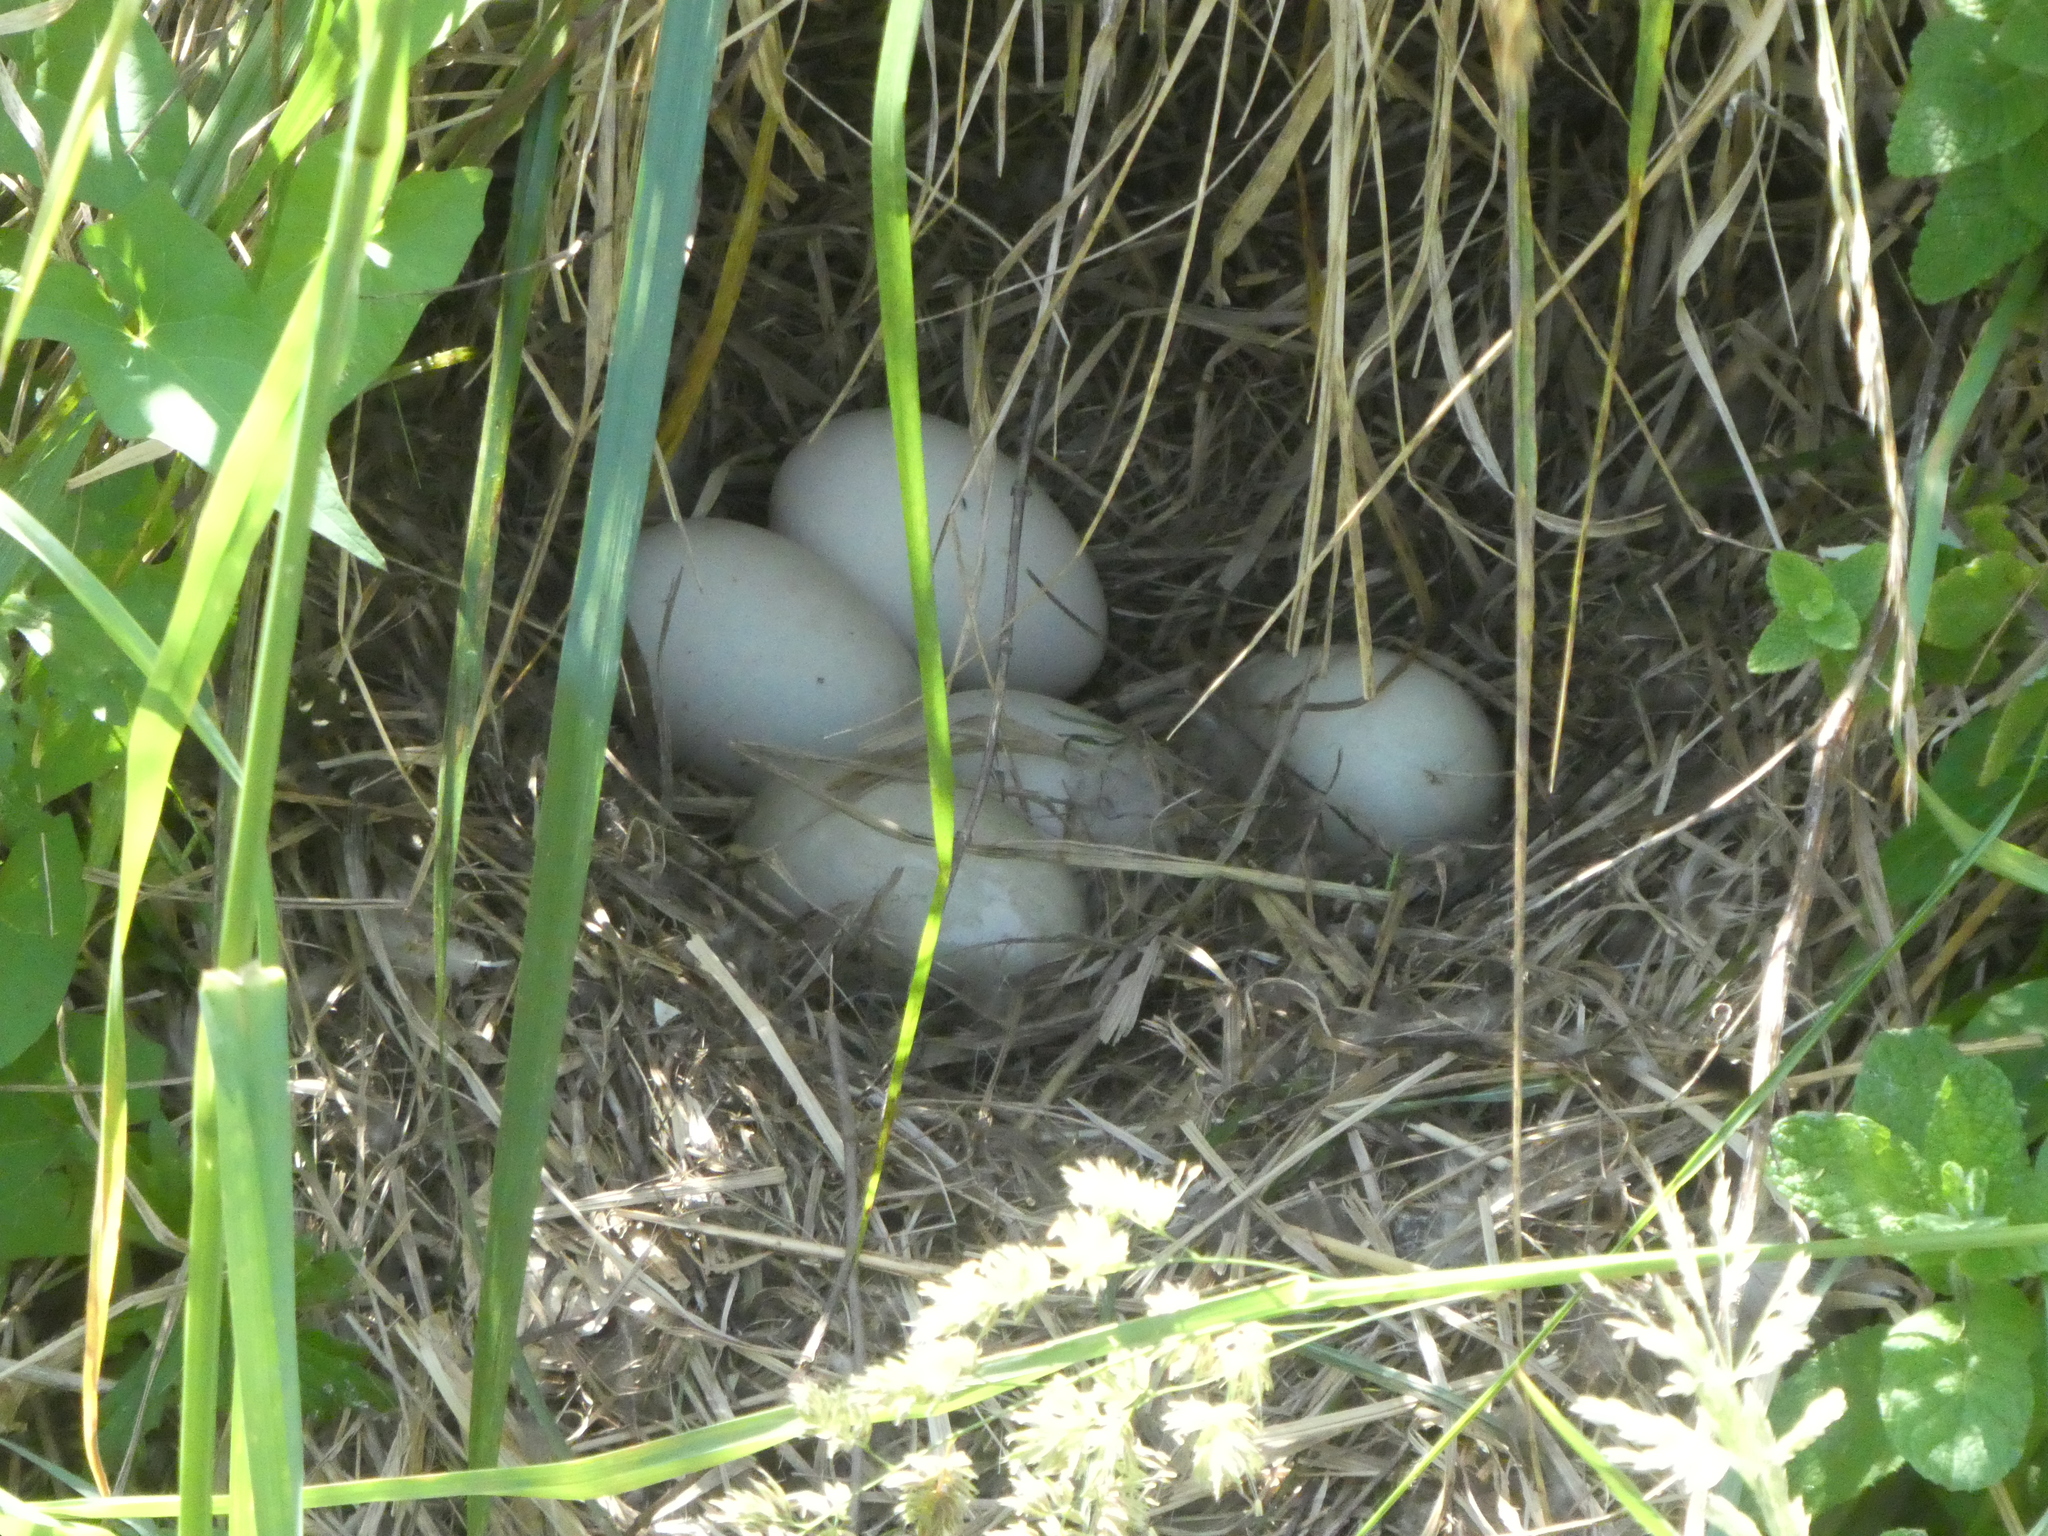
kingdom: Animalia
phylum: Chordata
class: Aves
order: Anseriformes
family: Anatidae
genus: Anas
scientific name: Anas platyrhynchos
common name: Mallard
